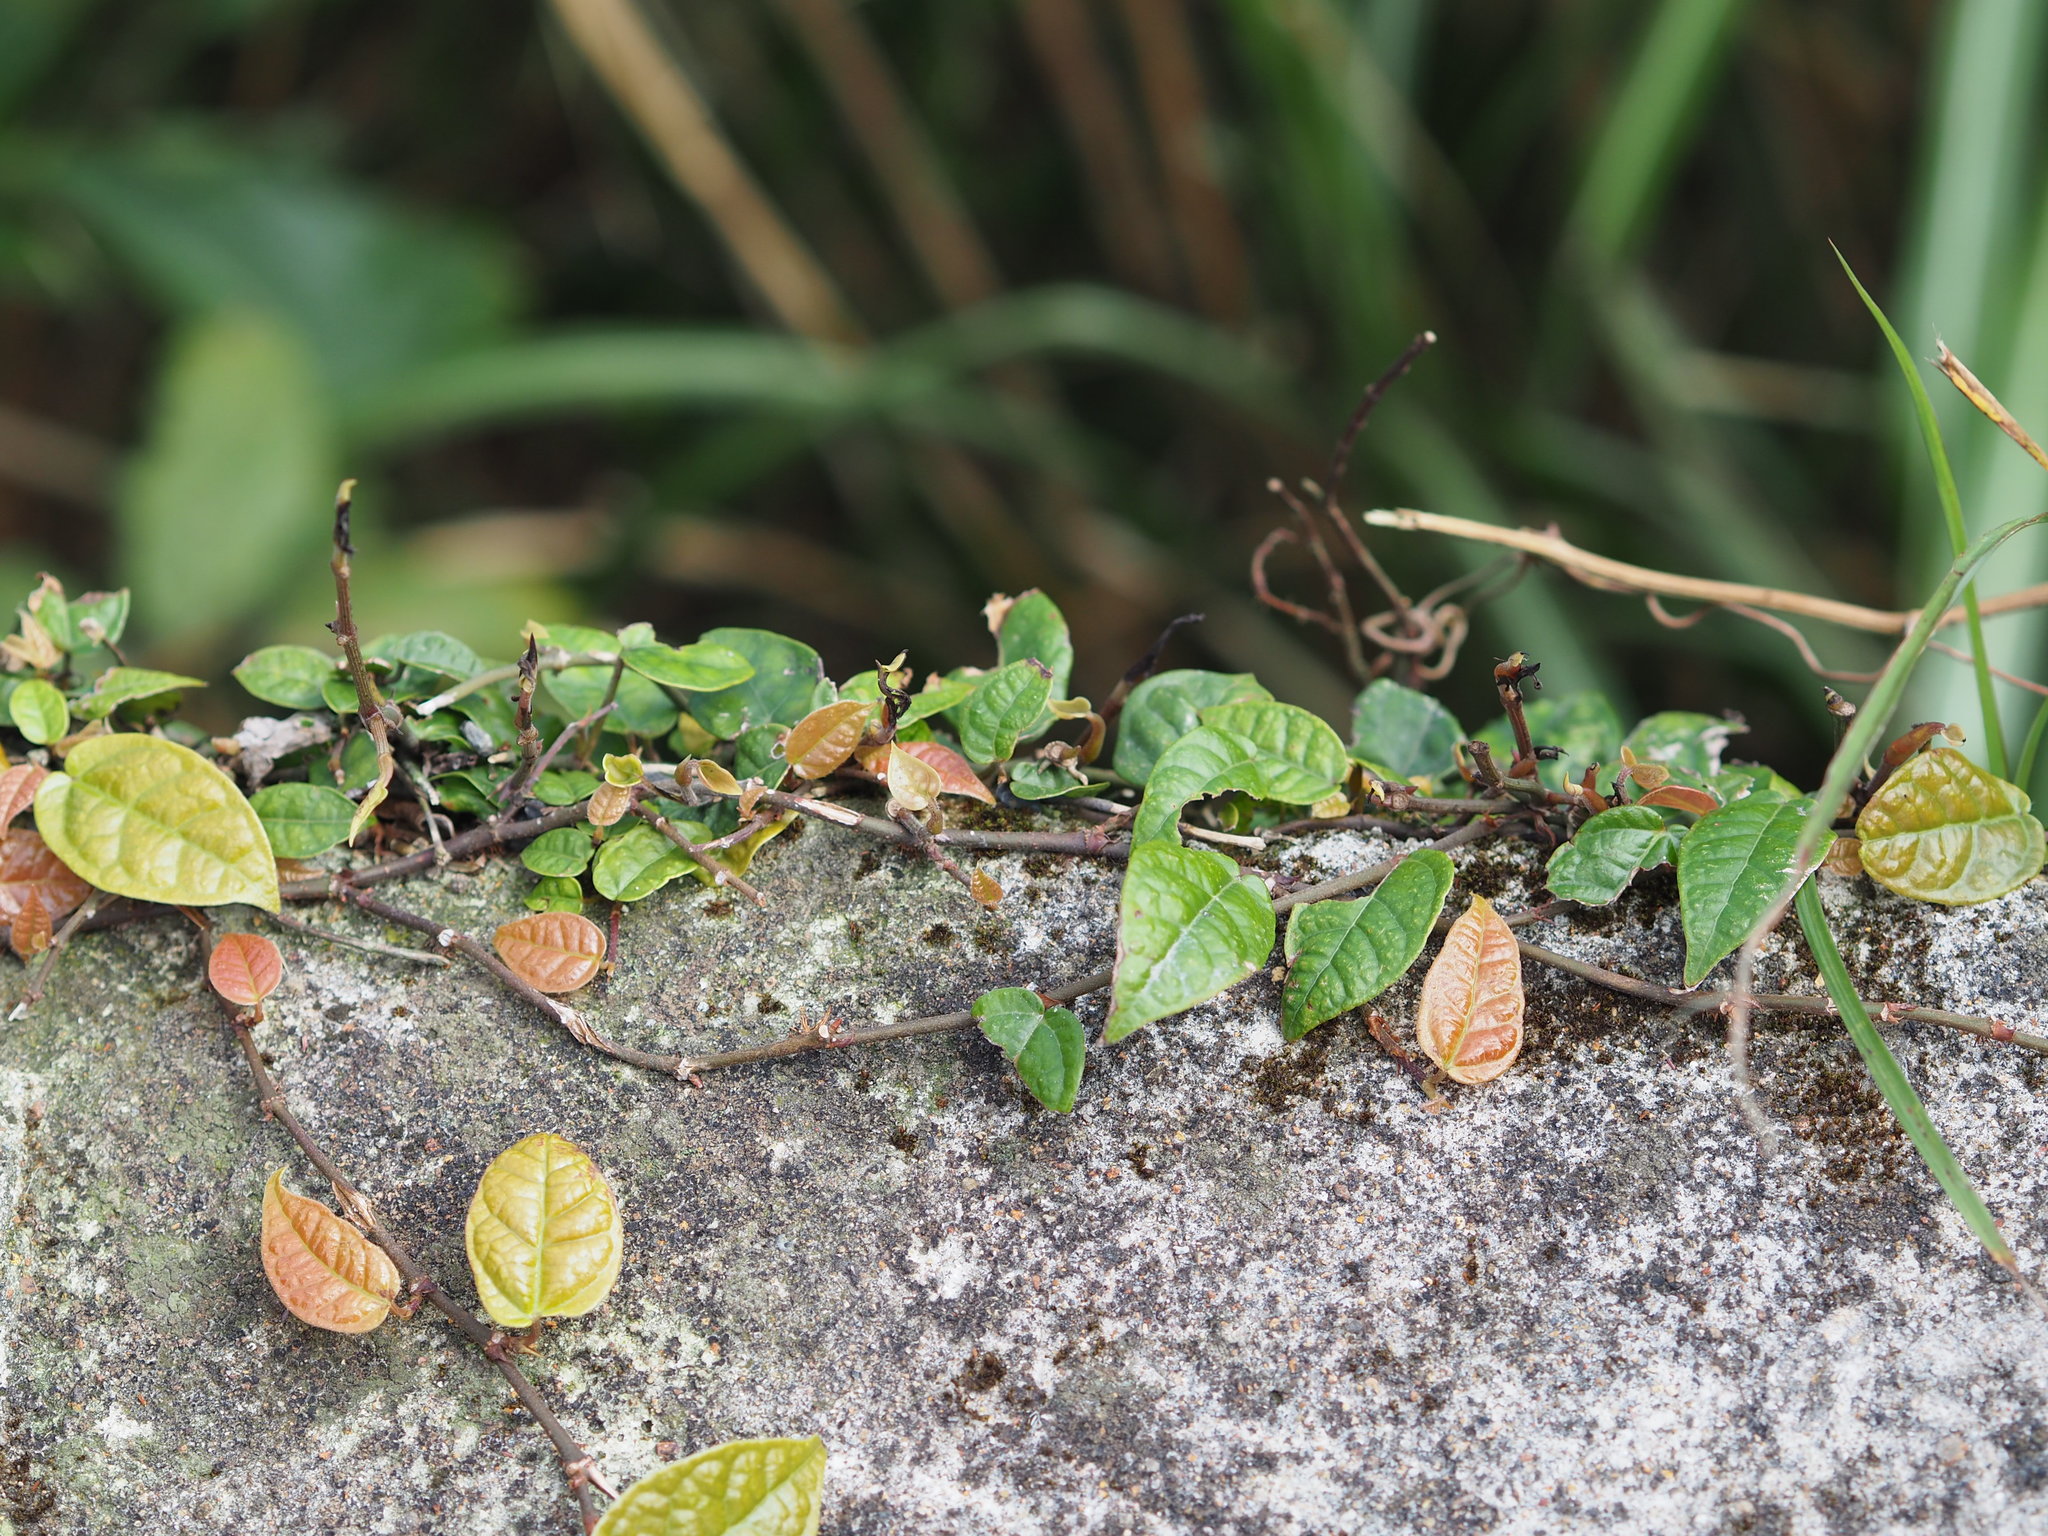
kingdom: Plantae
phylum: Tracheophyta
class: Magnoliopsida
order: Rosales
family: Moraceae
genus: Ficus
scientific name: Ficus sarmentosa
